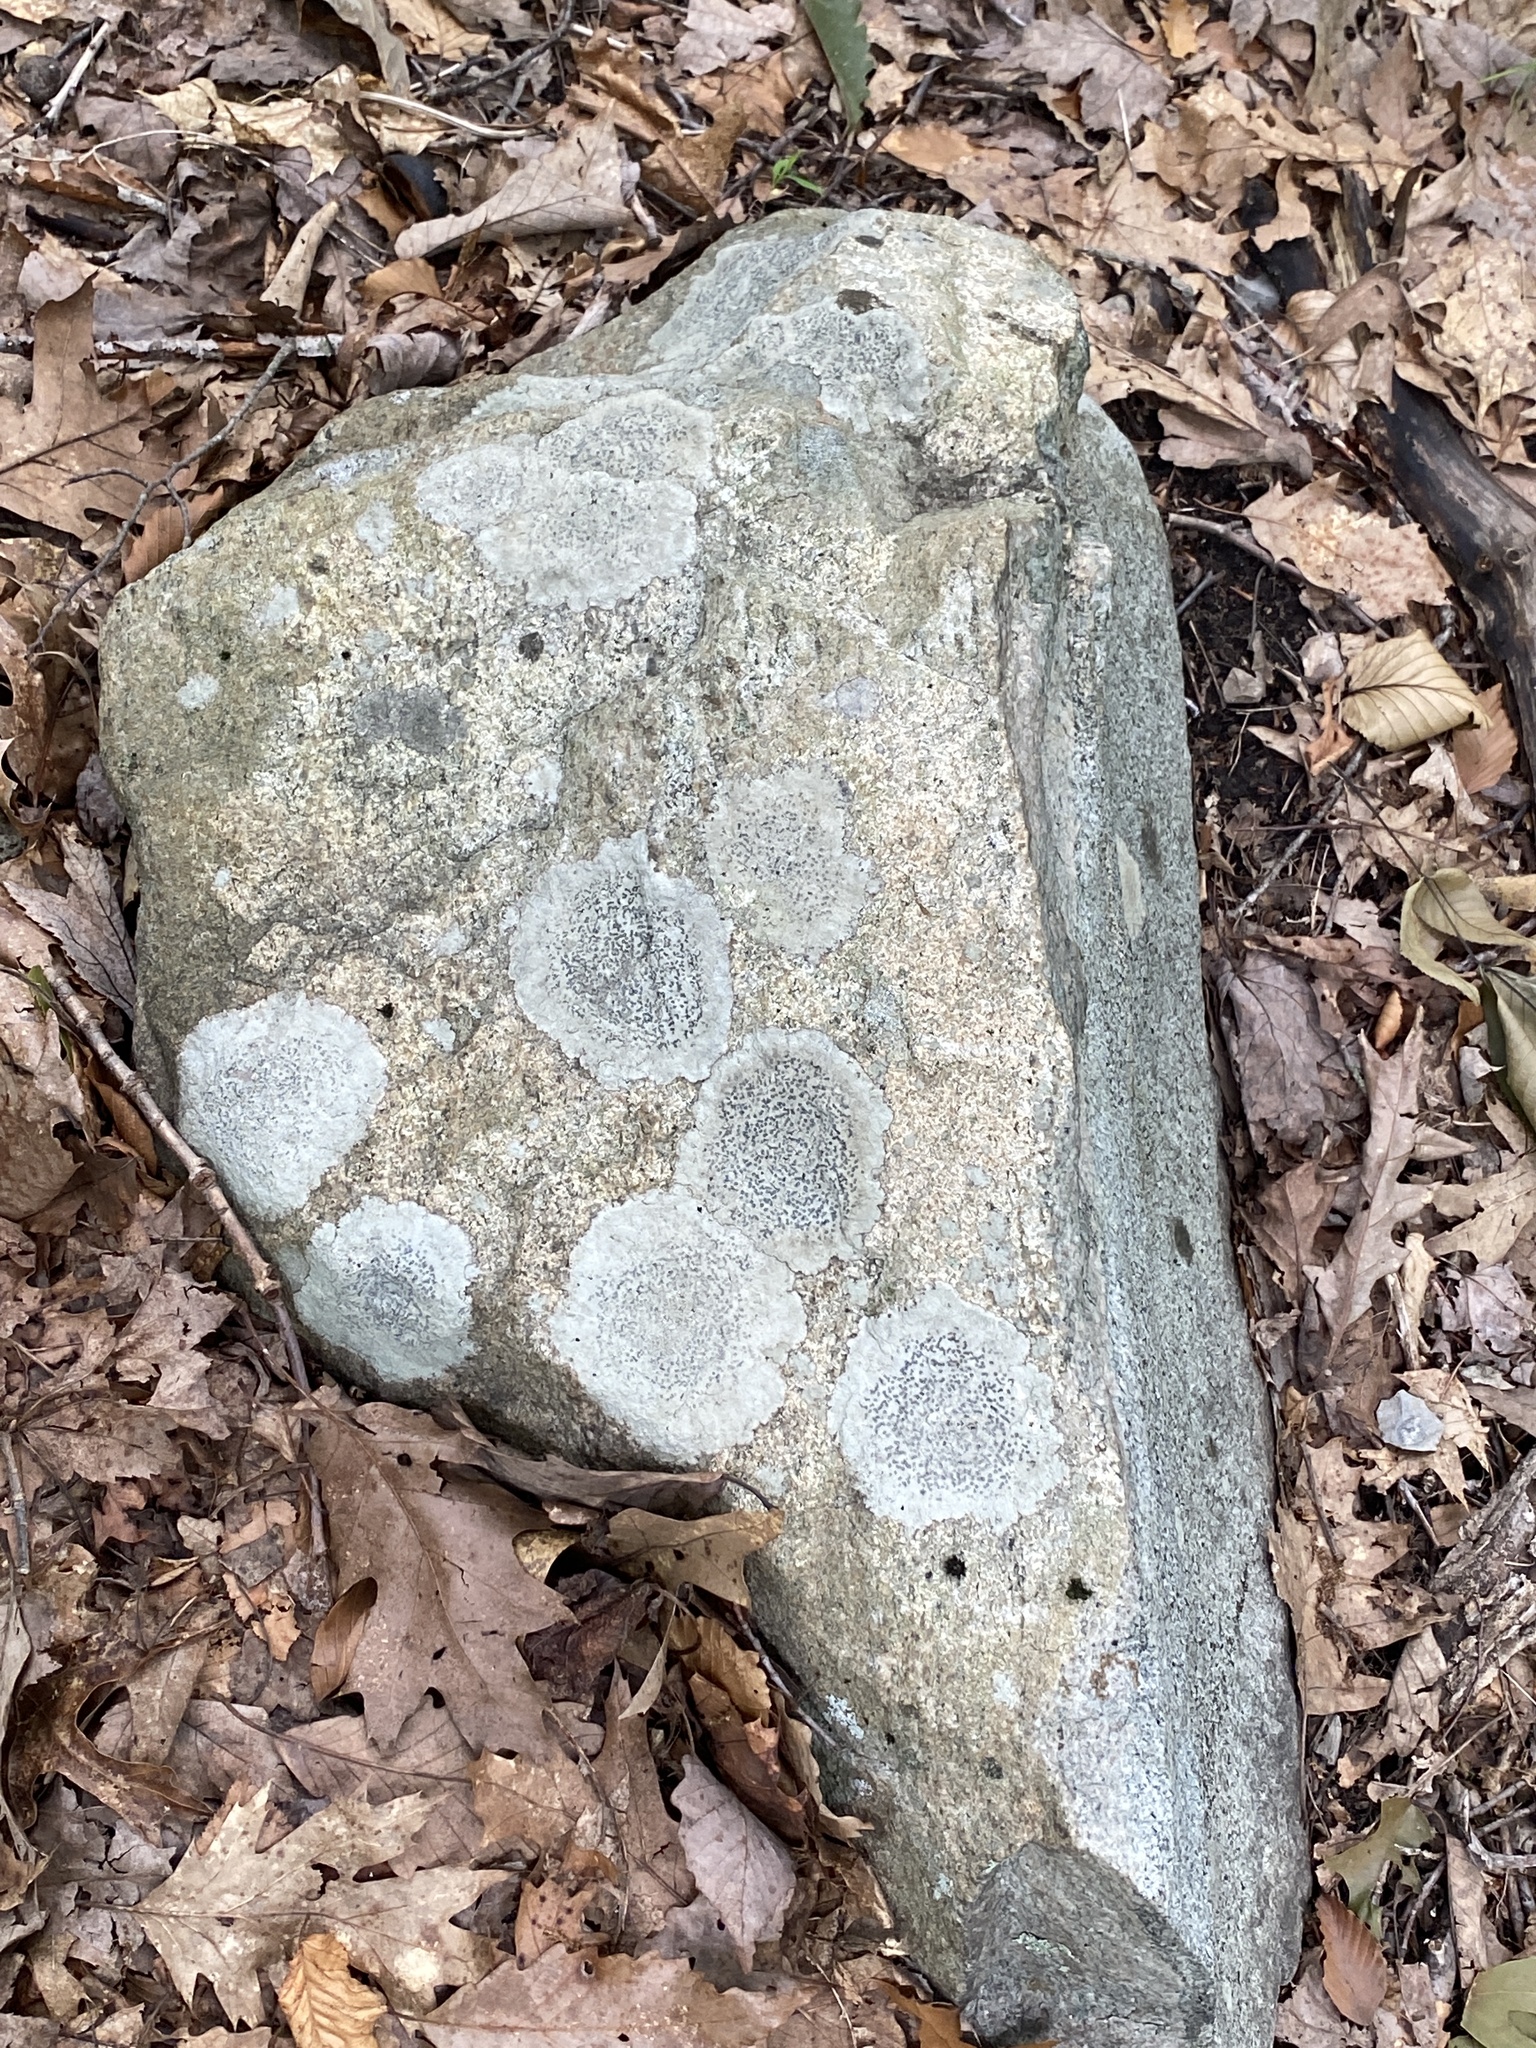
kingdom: Fungi
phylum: Ascomycota
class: Lecanoromycetes
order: Lecideales
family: Lecideaceae
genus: Porpidia
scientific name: Porpidia albocaerulescens
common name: Smokey-eyed boulder lichen
